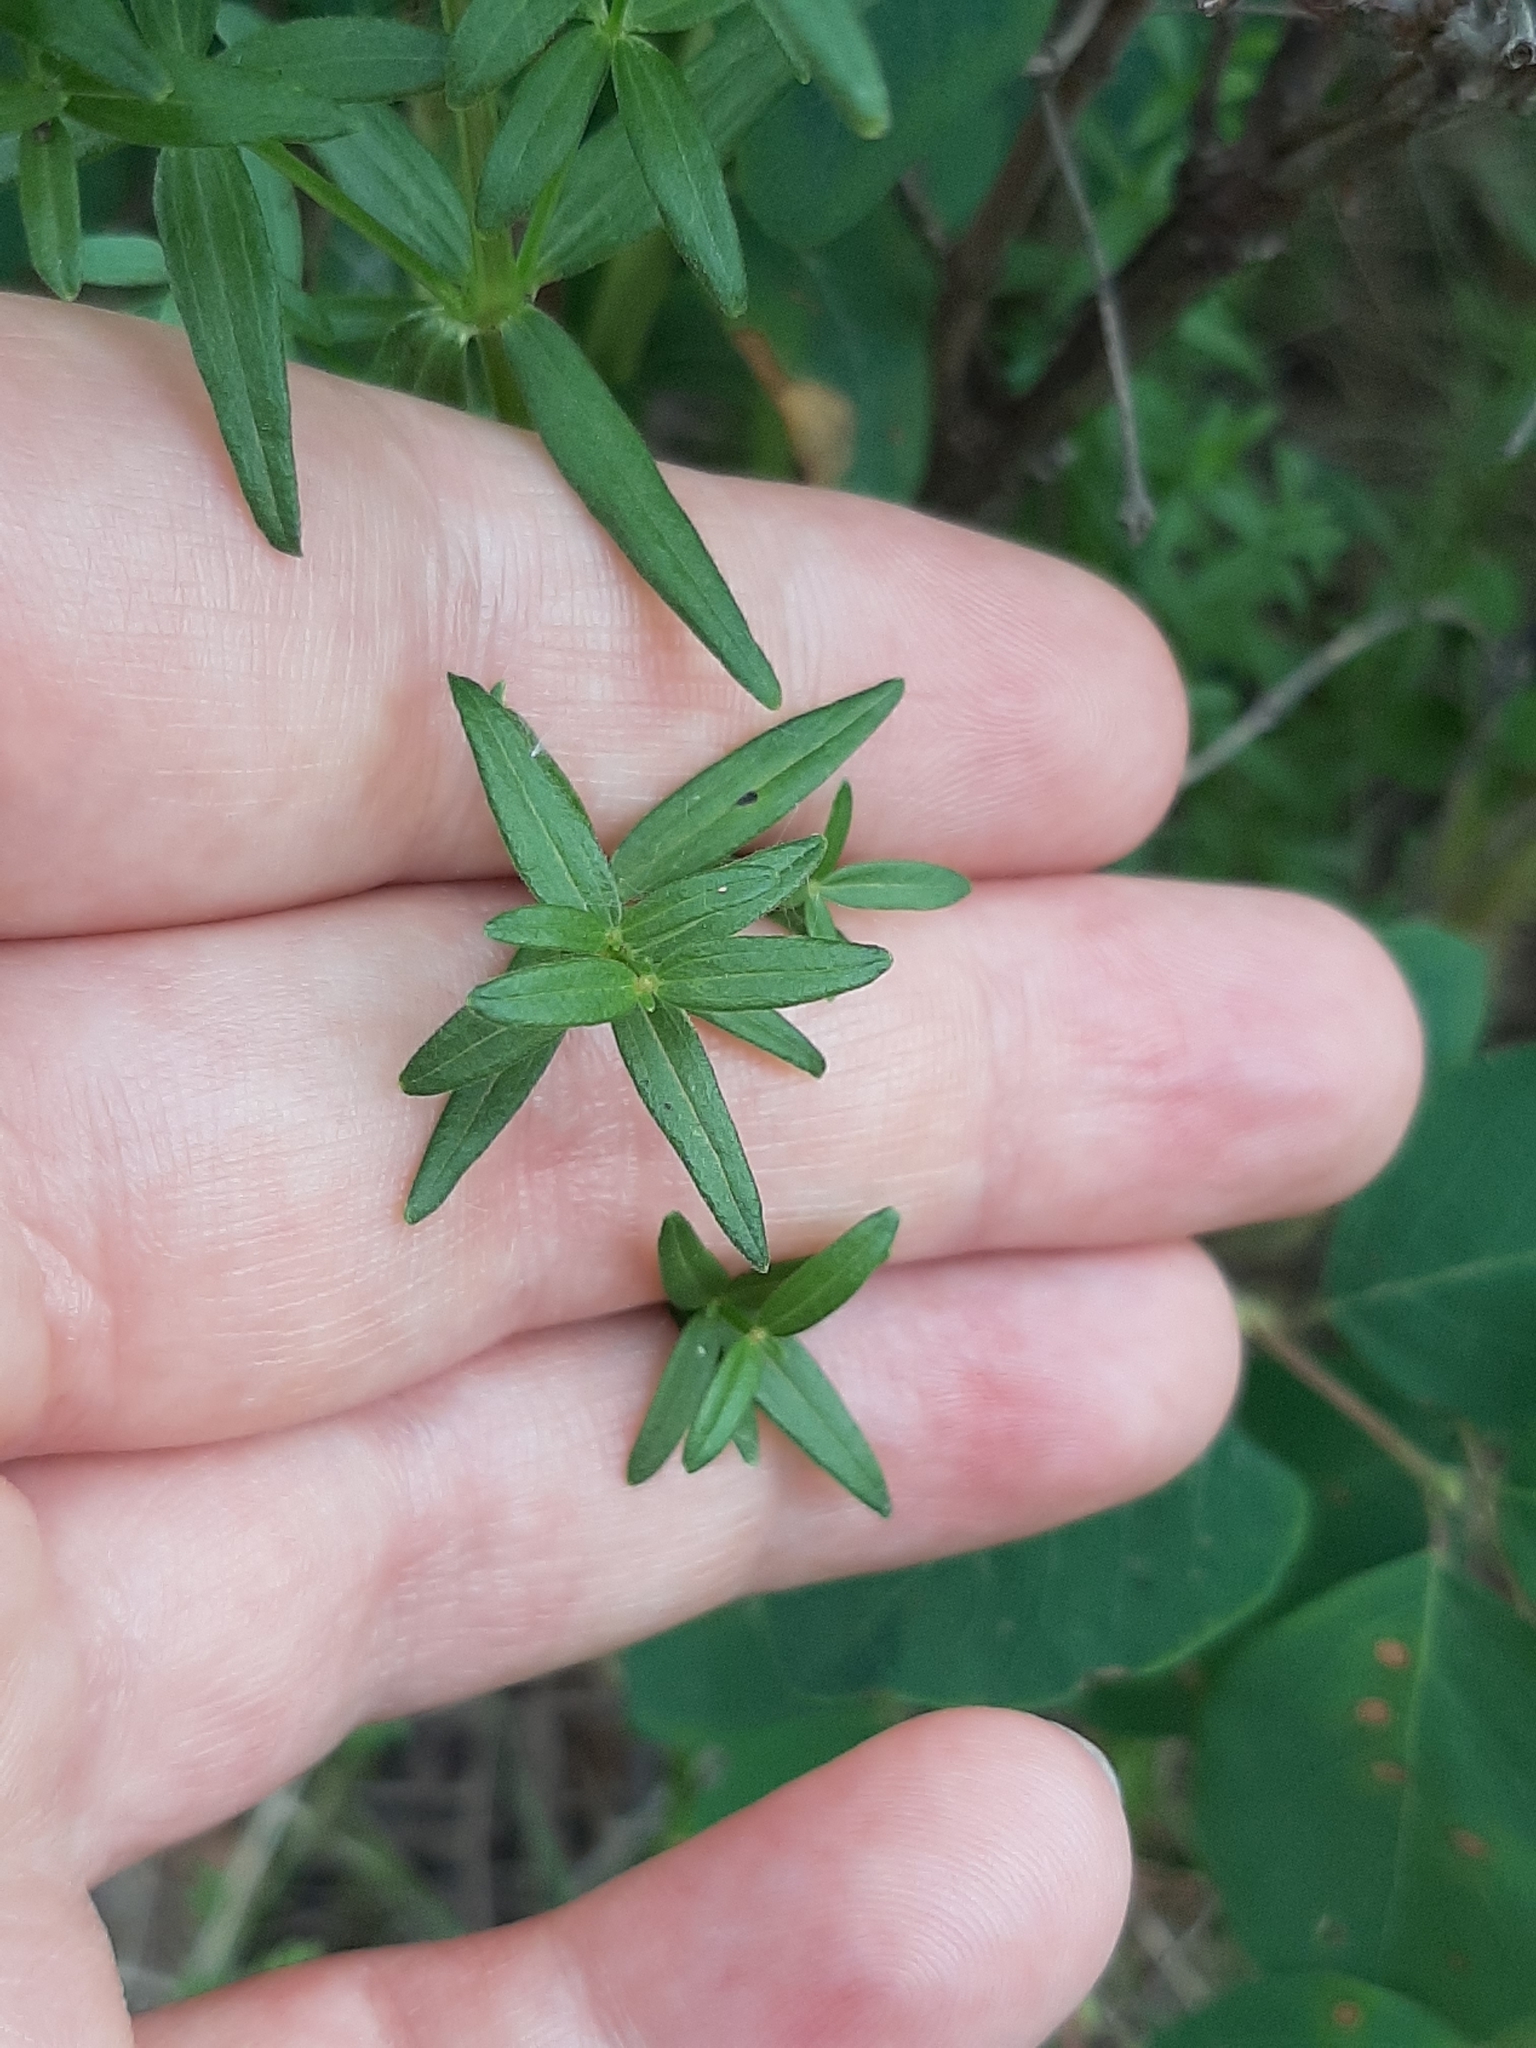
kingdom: Plantae
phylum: Tracheophyta
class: Magnoliopsida
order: Gentianales
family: Rubiaceae
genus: Galium
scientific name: Galium boreale
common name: Northern bedstraw
